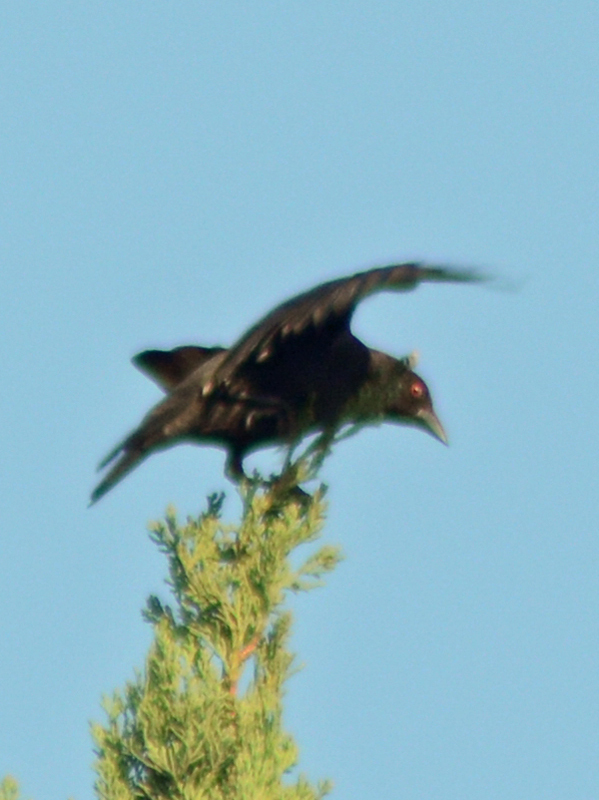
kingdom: Animalia
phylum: Chordata
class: Aves
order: Passeriformes
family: Icteridae
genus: Molothrus
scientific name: Molothrus aeneus
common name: Bronzed cowbird
